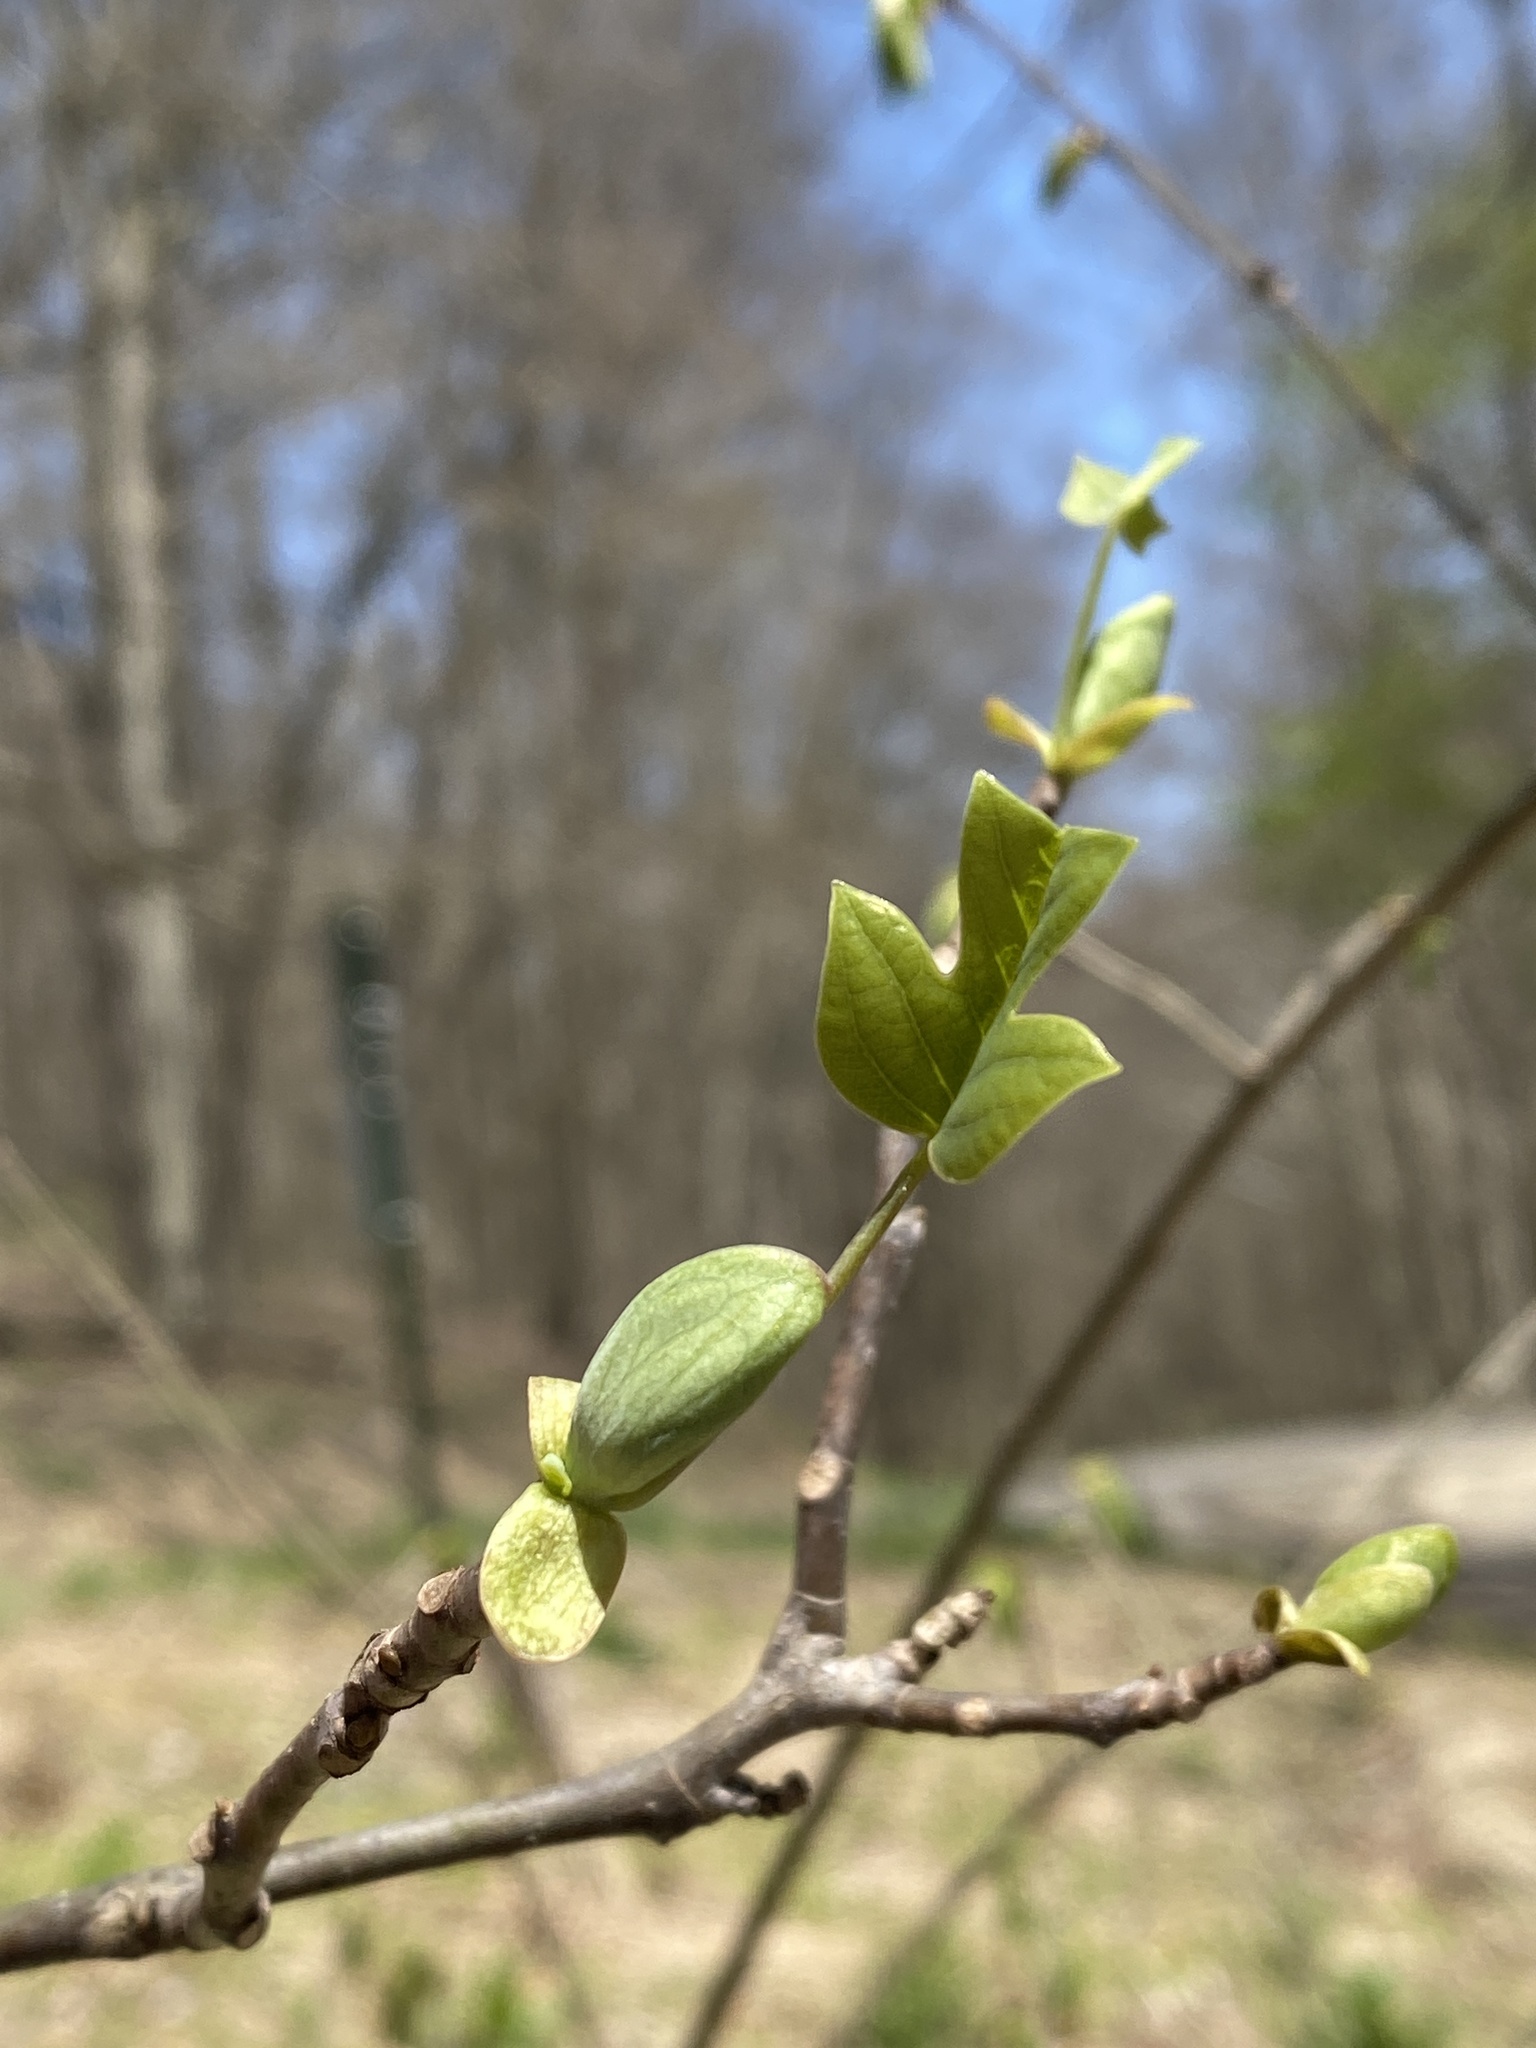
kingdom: Plantae
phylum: Tracheophyta
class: Magnoliopsida
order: Magnoliales
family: Magnoliaceae
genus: Liriodendron
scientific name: Liriodendron tulipifera
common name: Tulip tree
